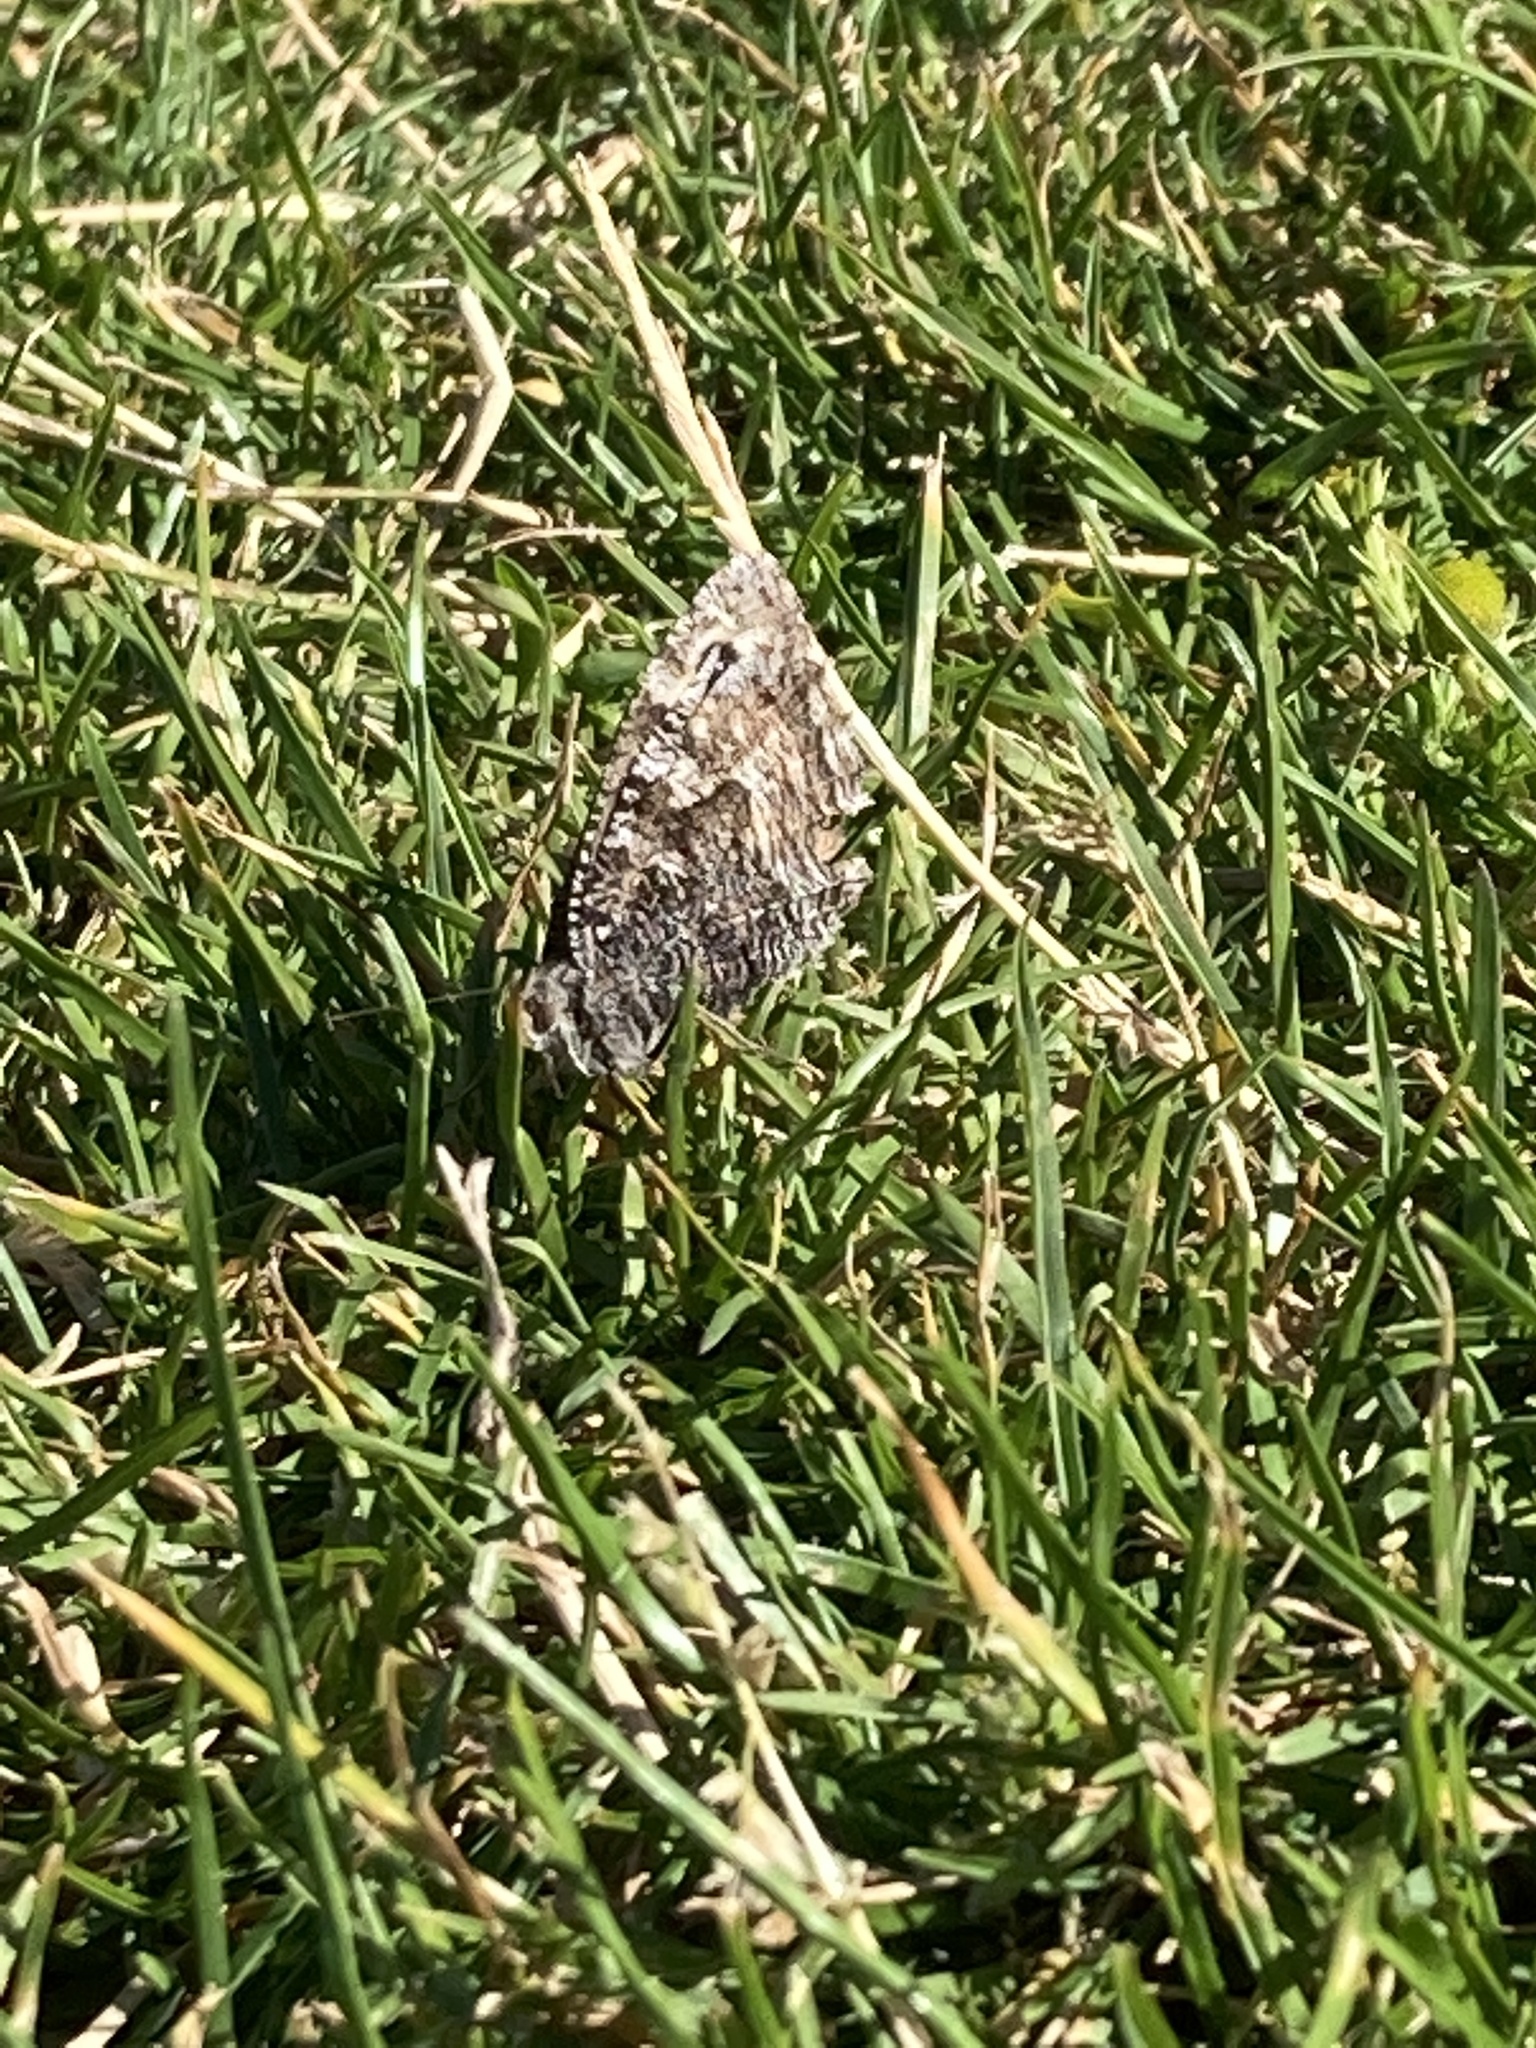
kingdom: Animalia
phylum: Arthropoda
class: Insecta
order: Lepidoptera
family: Nymphalidae
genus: Hipparchia
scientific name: Hipparchia semele
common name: Grayling
